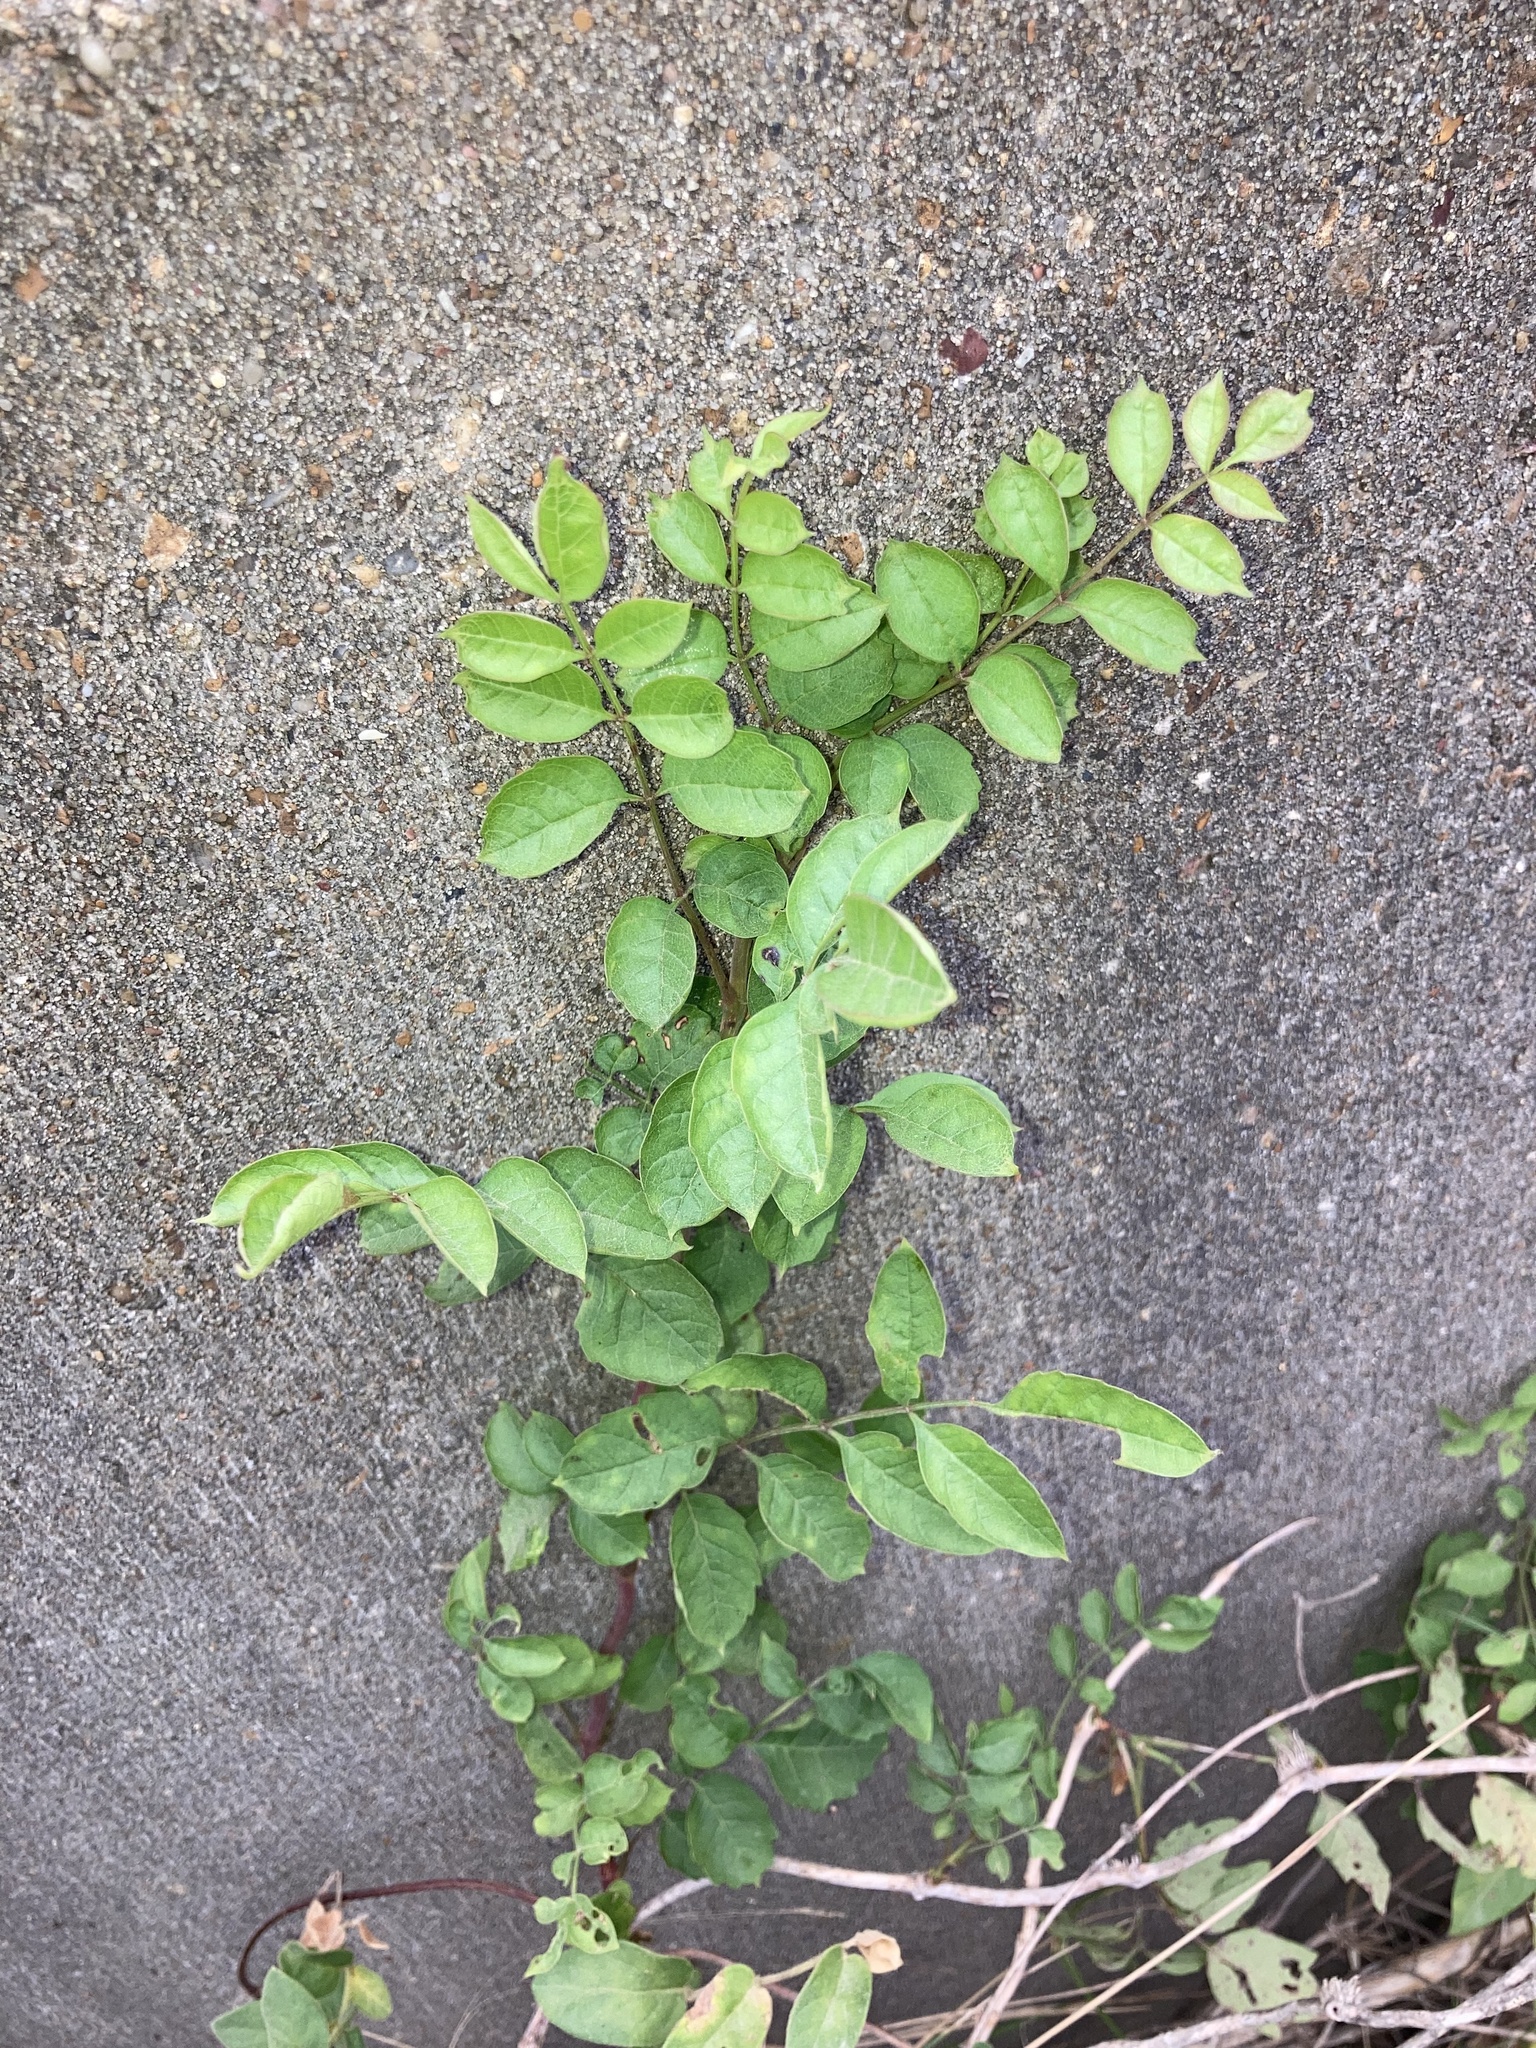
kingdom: Plantae
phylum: Tracheophyta
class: Magnoliopsida
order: Lamiales
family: Bignoniaceae
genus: Campsis
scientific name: Campsis radicans
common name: Trumpet-creeper
